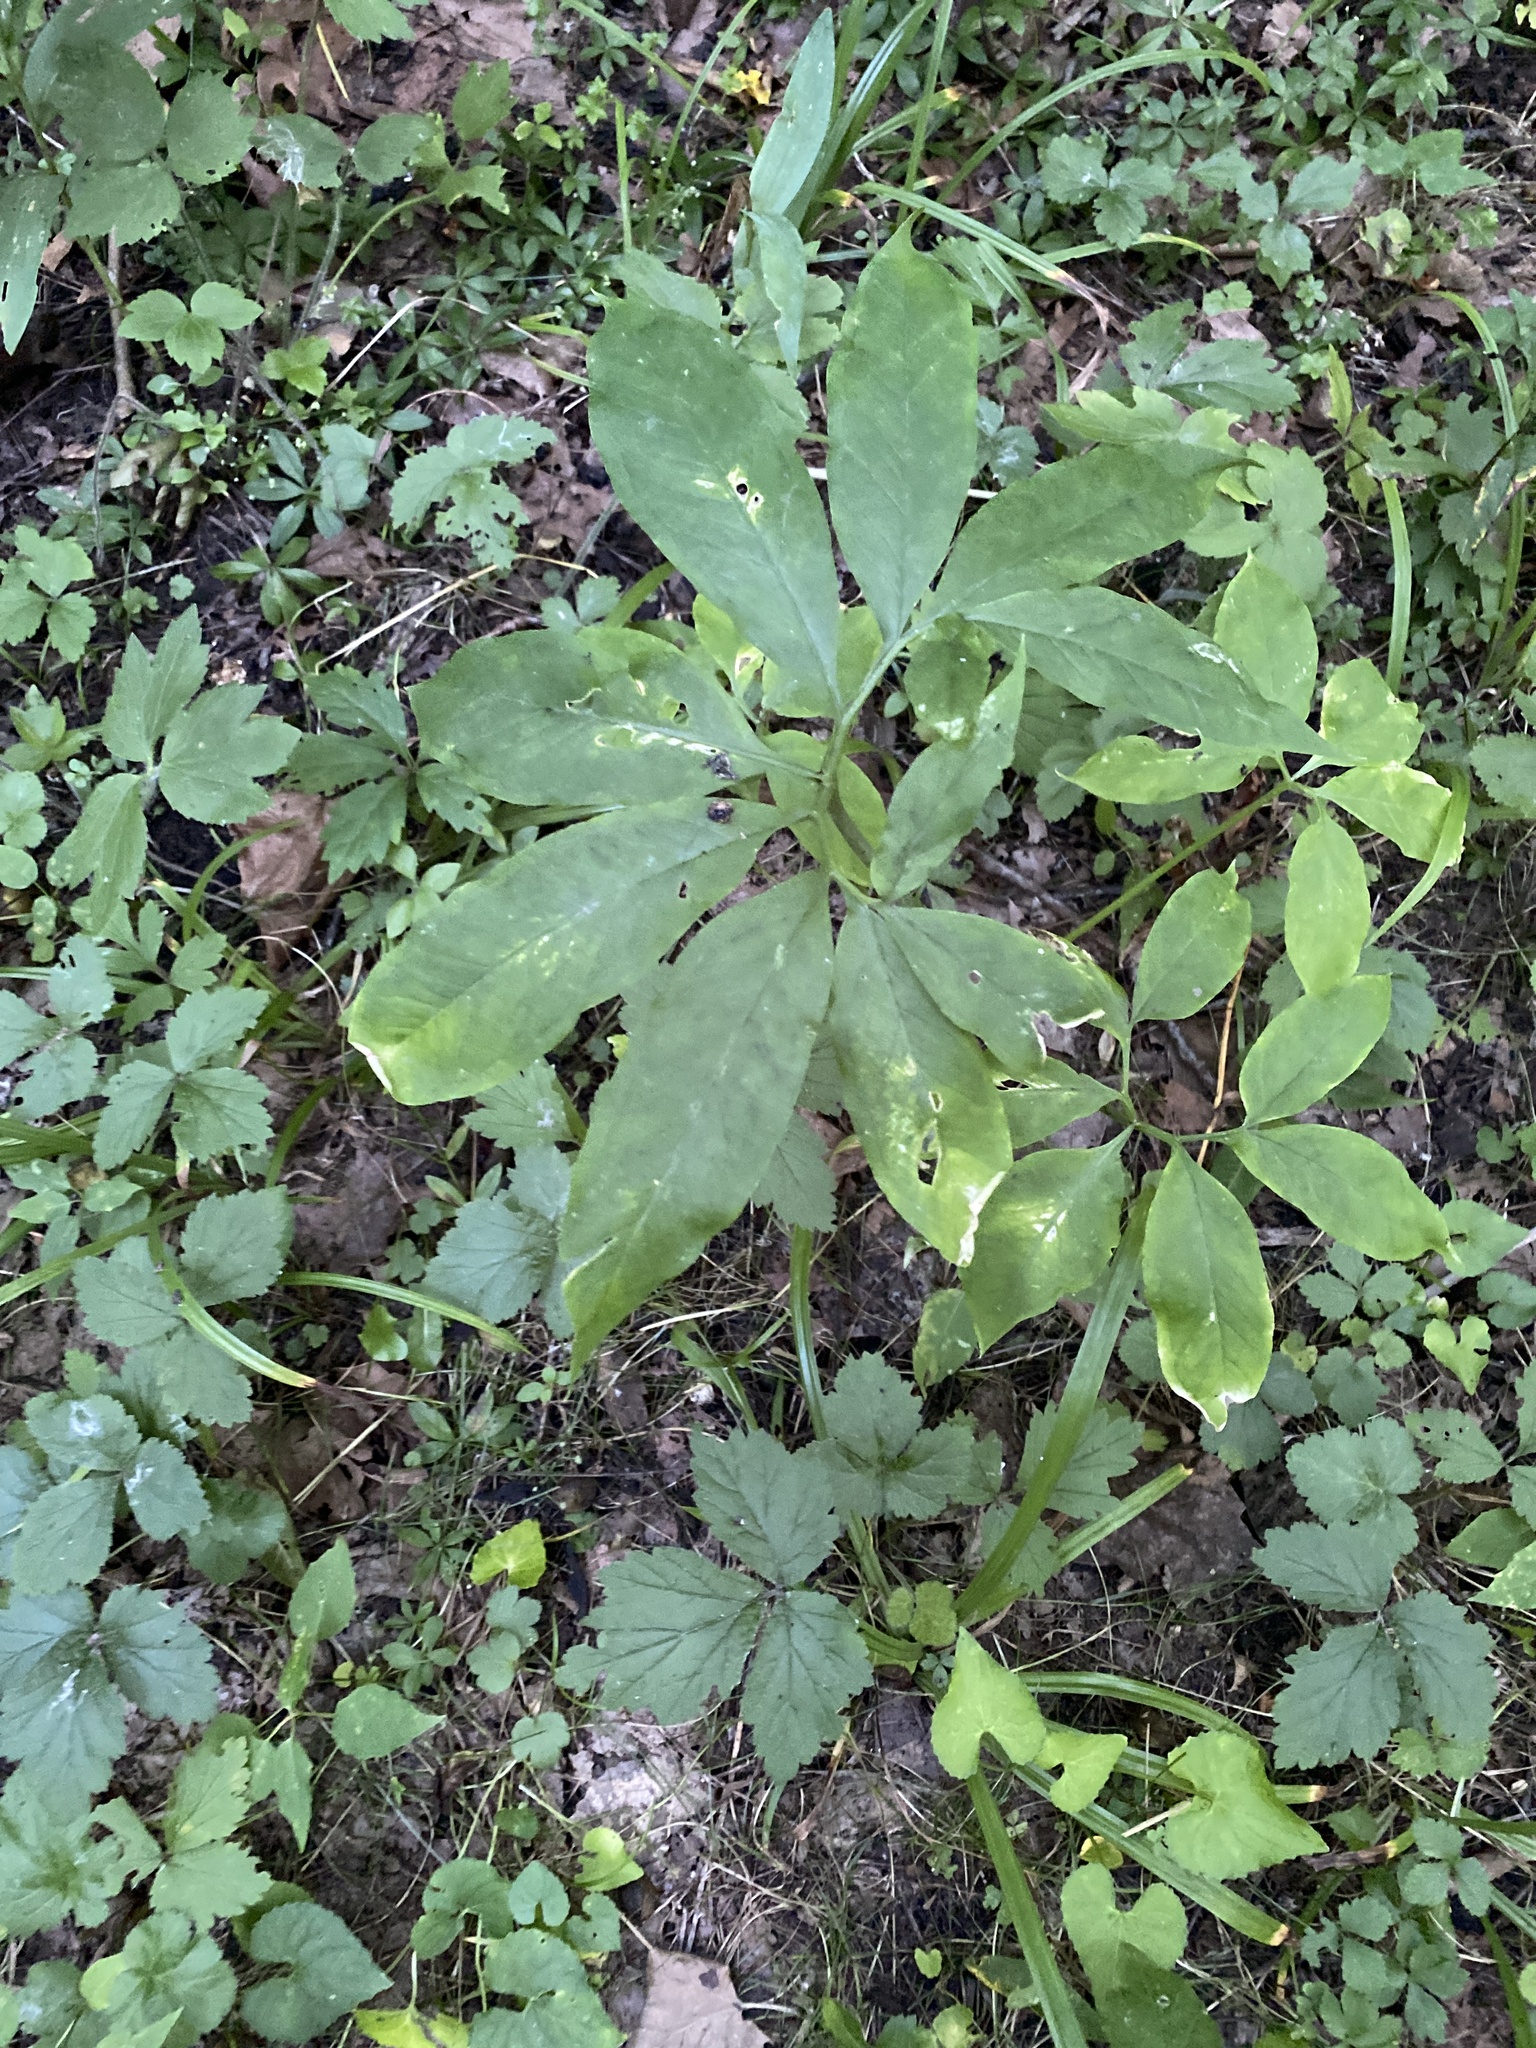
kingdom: Plantae
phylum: Tracheophyta
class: Liliopsida
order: Alismatales
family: Araceae
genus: Arisaema
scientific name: Arisaema dracontium
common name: Dragon-arum
